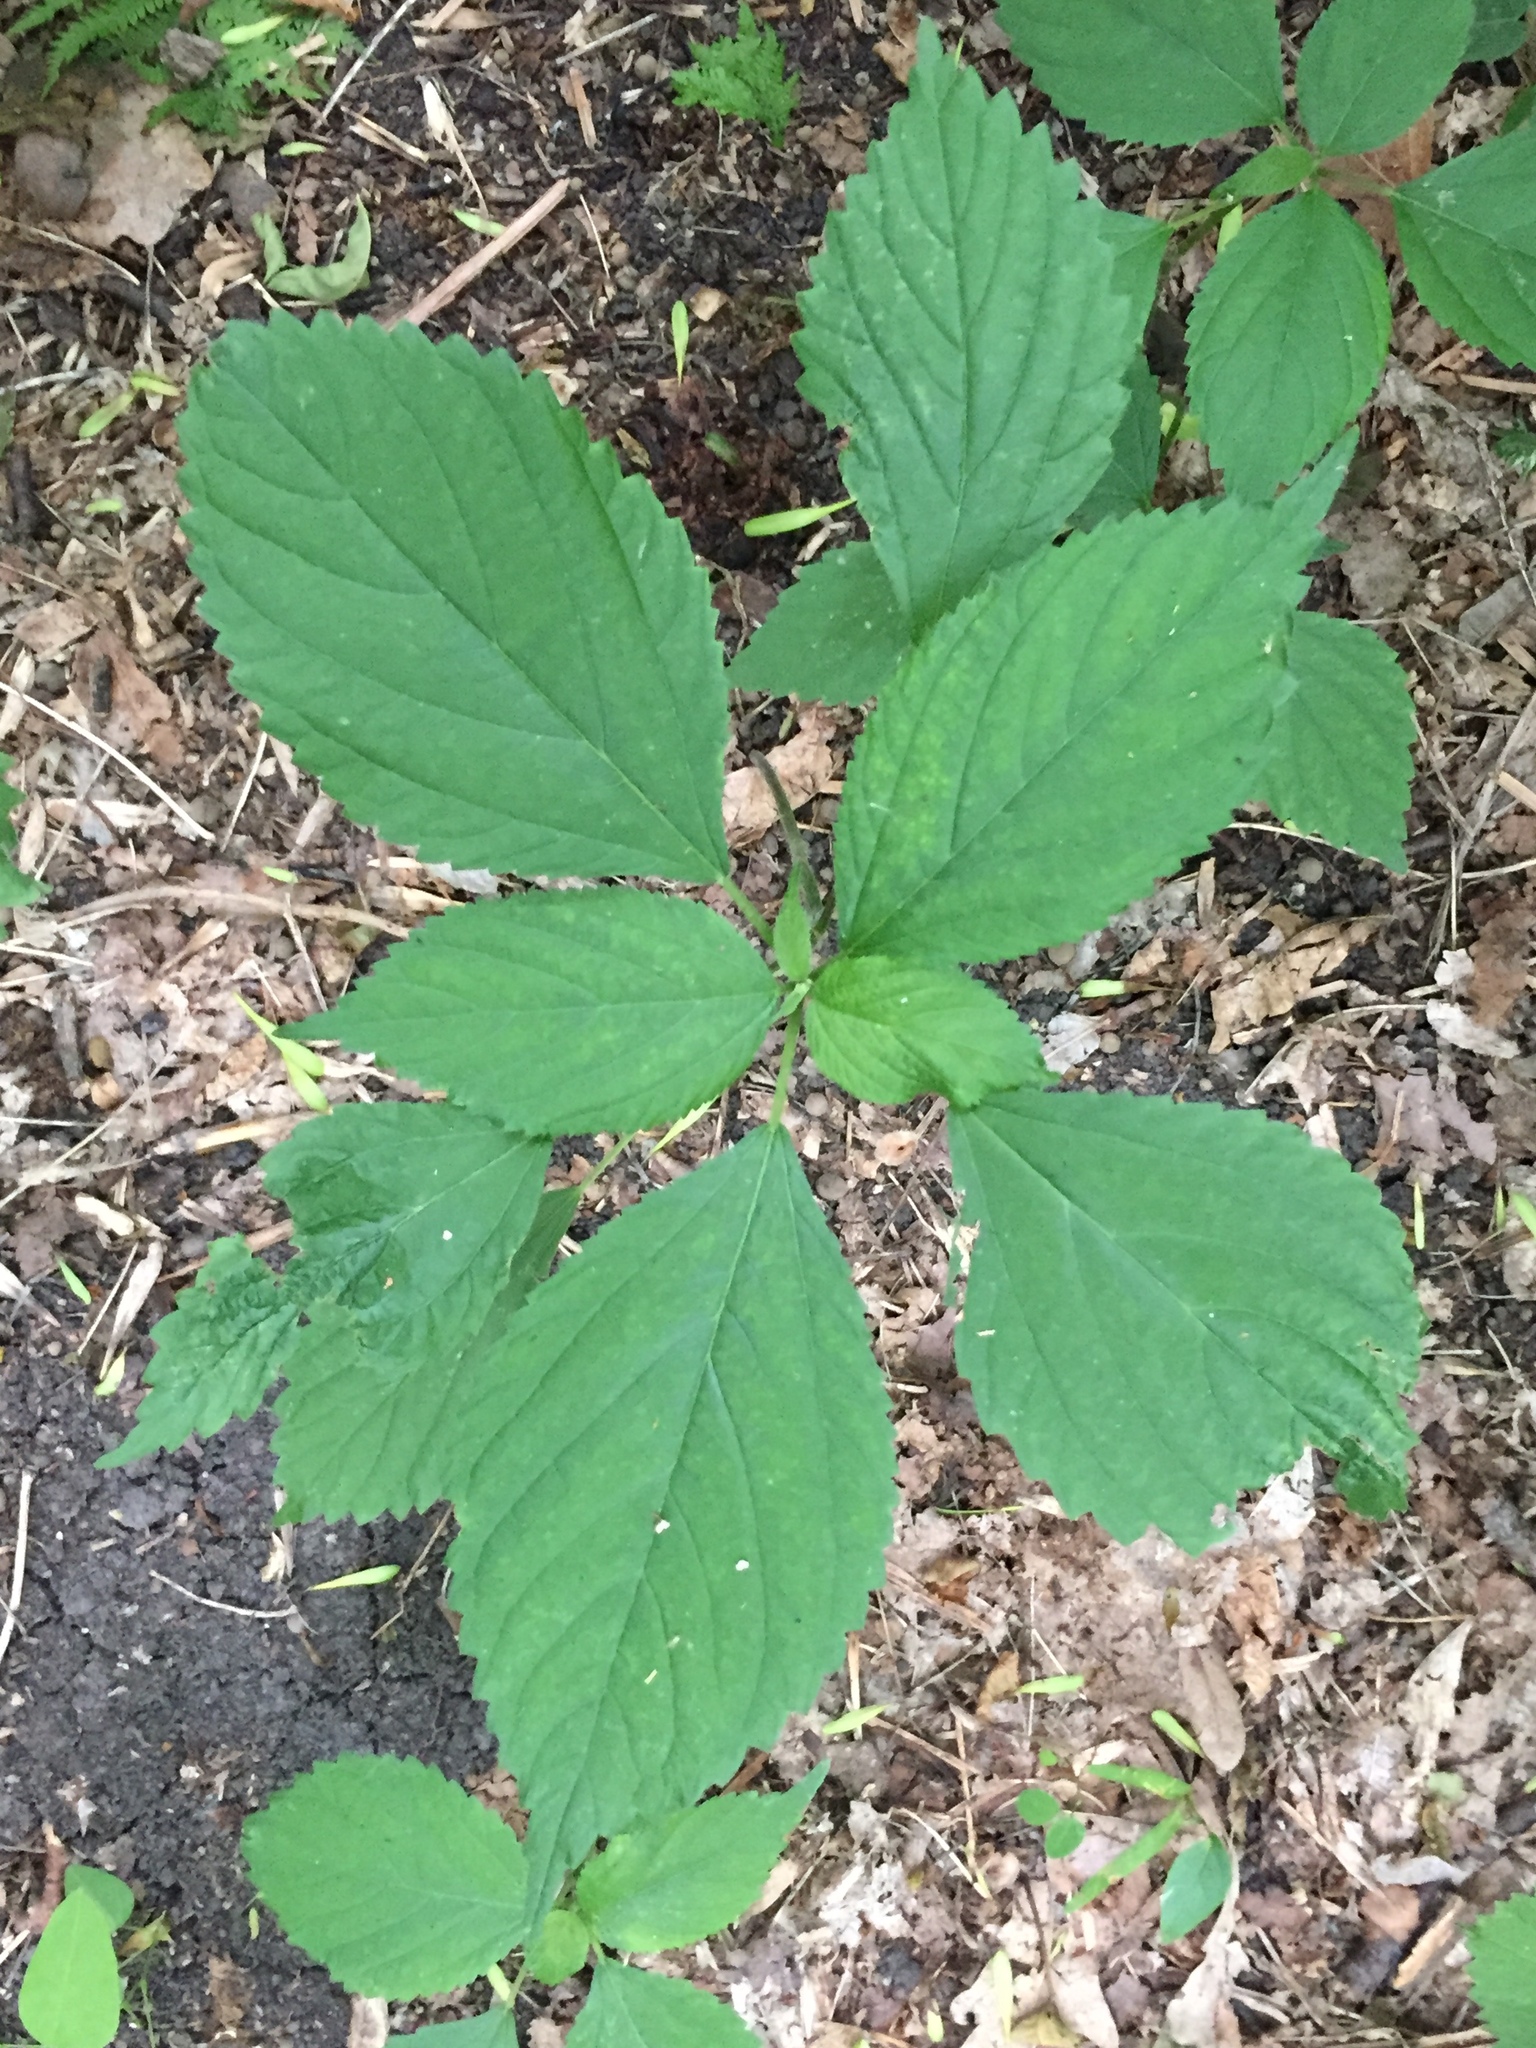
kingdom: Plantae
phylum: Tracheophyta
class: Magnoliopsida
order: Rosales
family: Urticaceae
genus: Laportea
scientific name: Laportea canadensis
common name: Canada nettle
